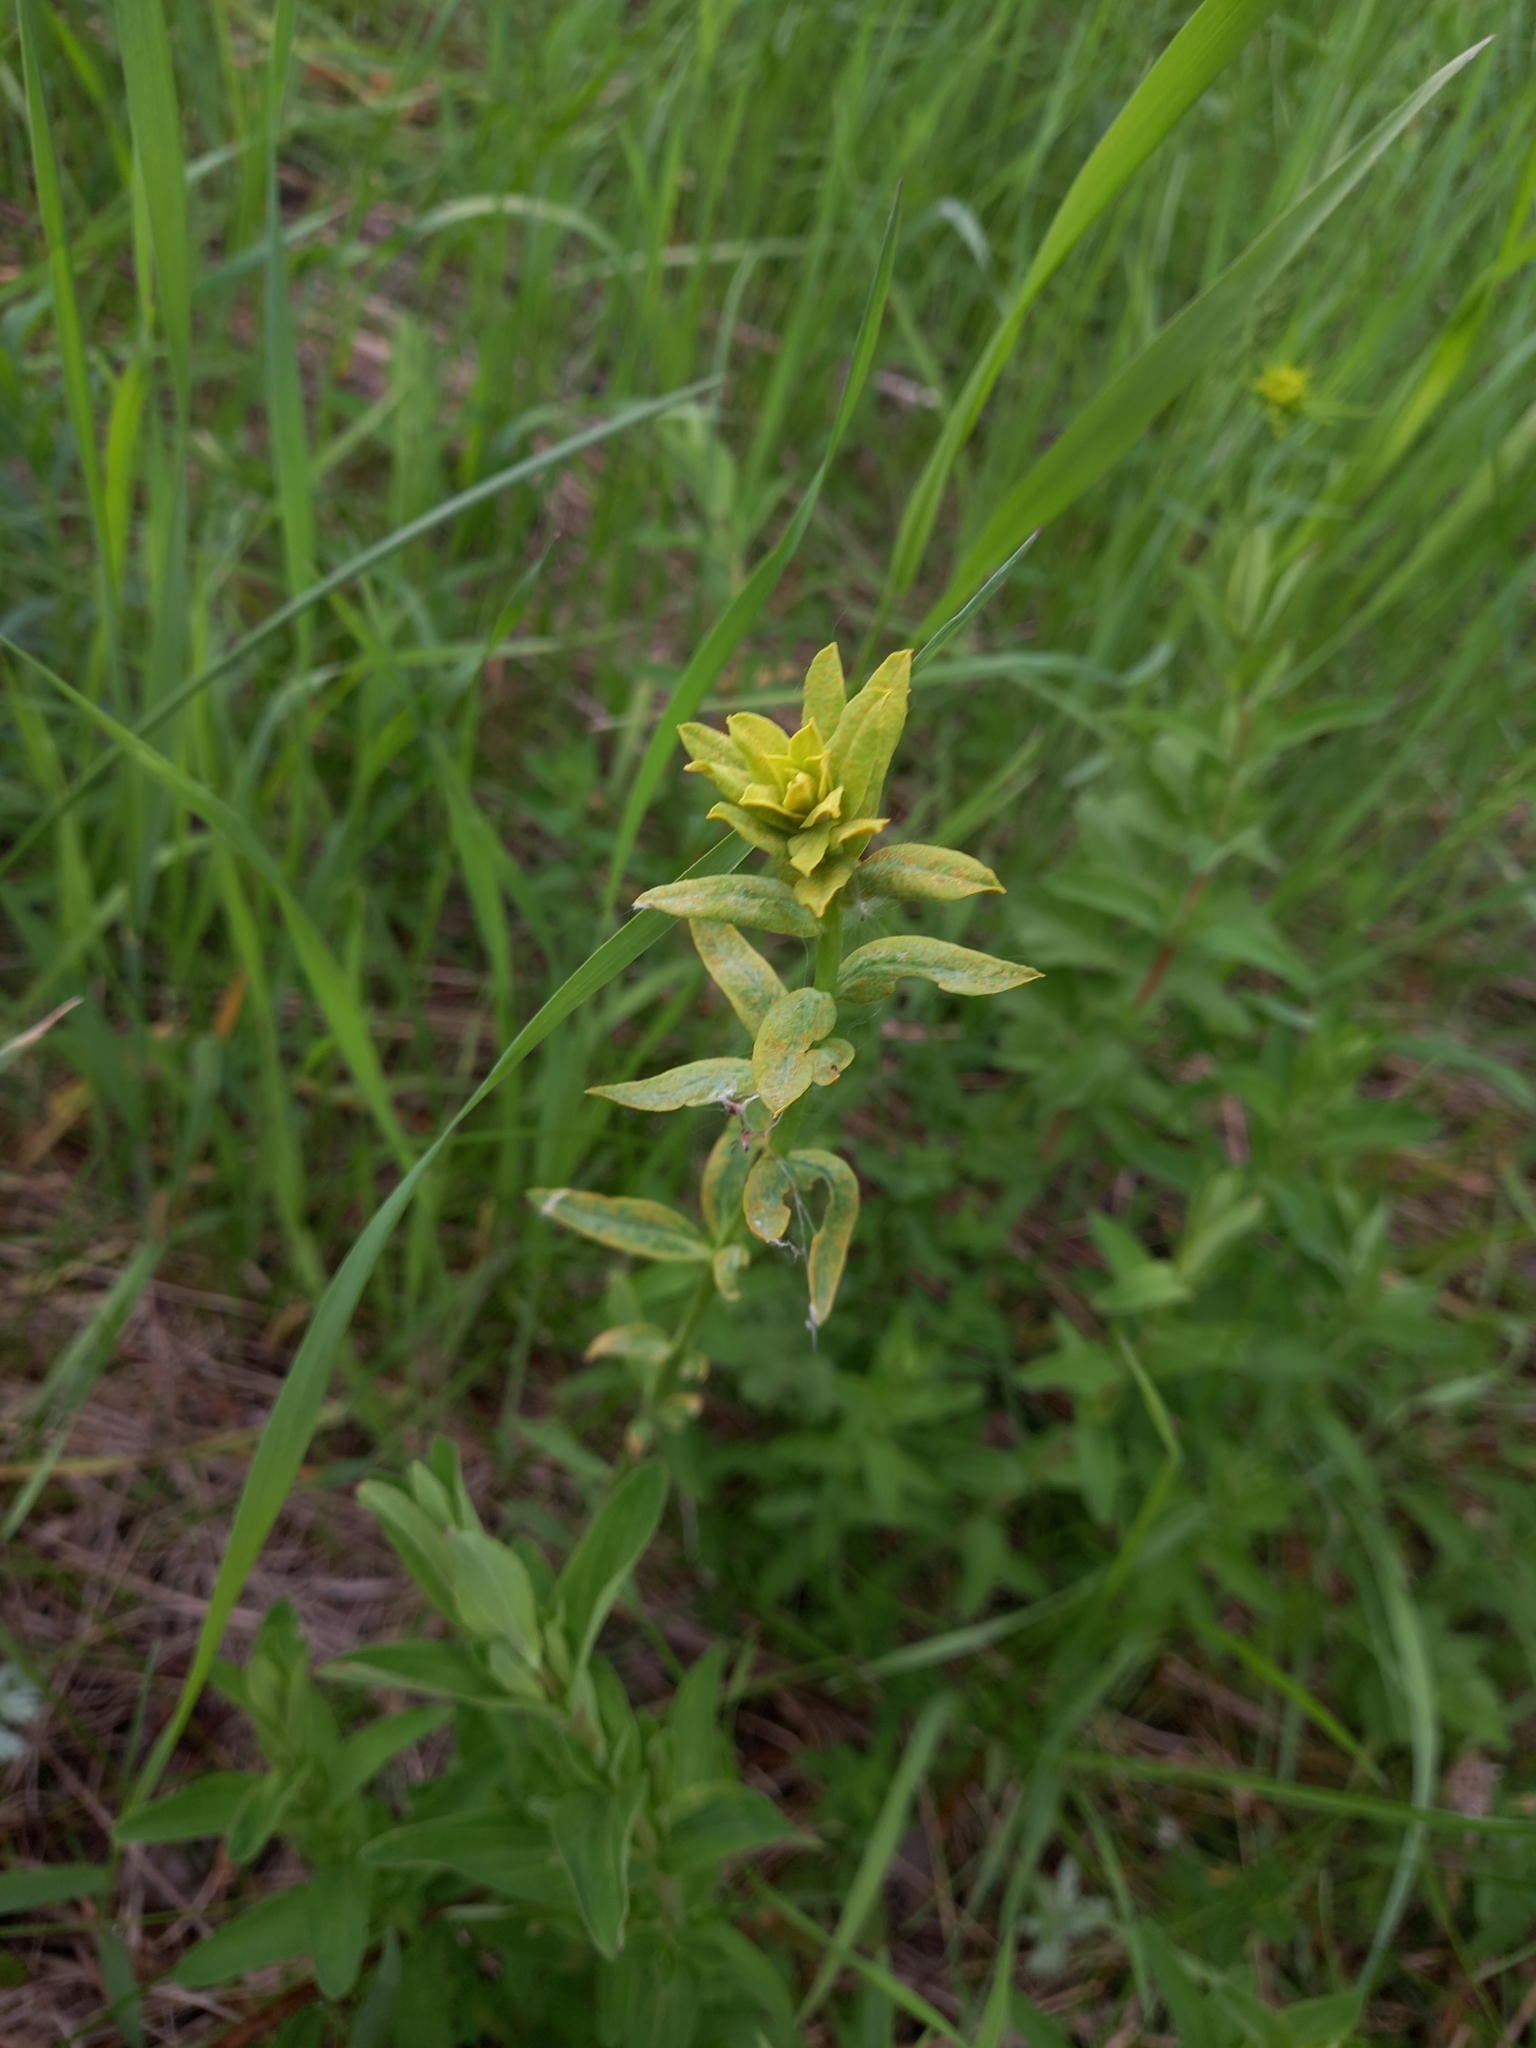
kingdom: Plantae
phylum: Tracheophyta
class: Magnoliopsida
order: Malpighiales
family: Euphorbiaceae
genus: Euphorbia
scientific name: Euphorbia virgata
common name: Leafy spurge
